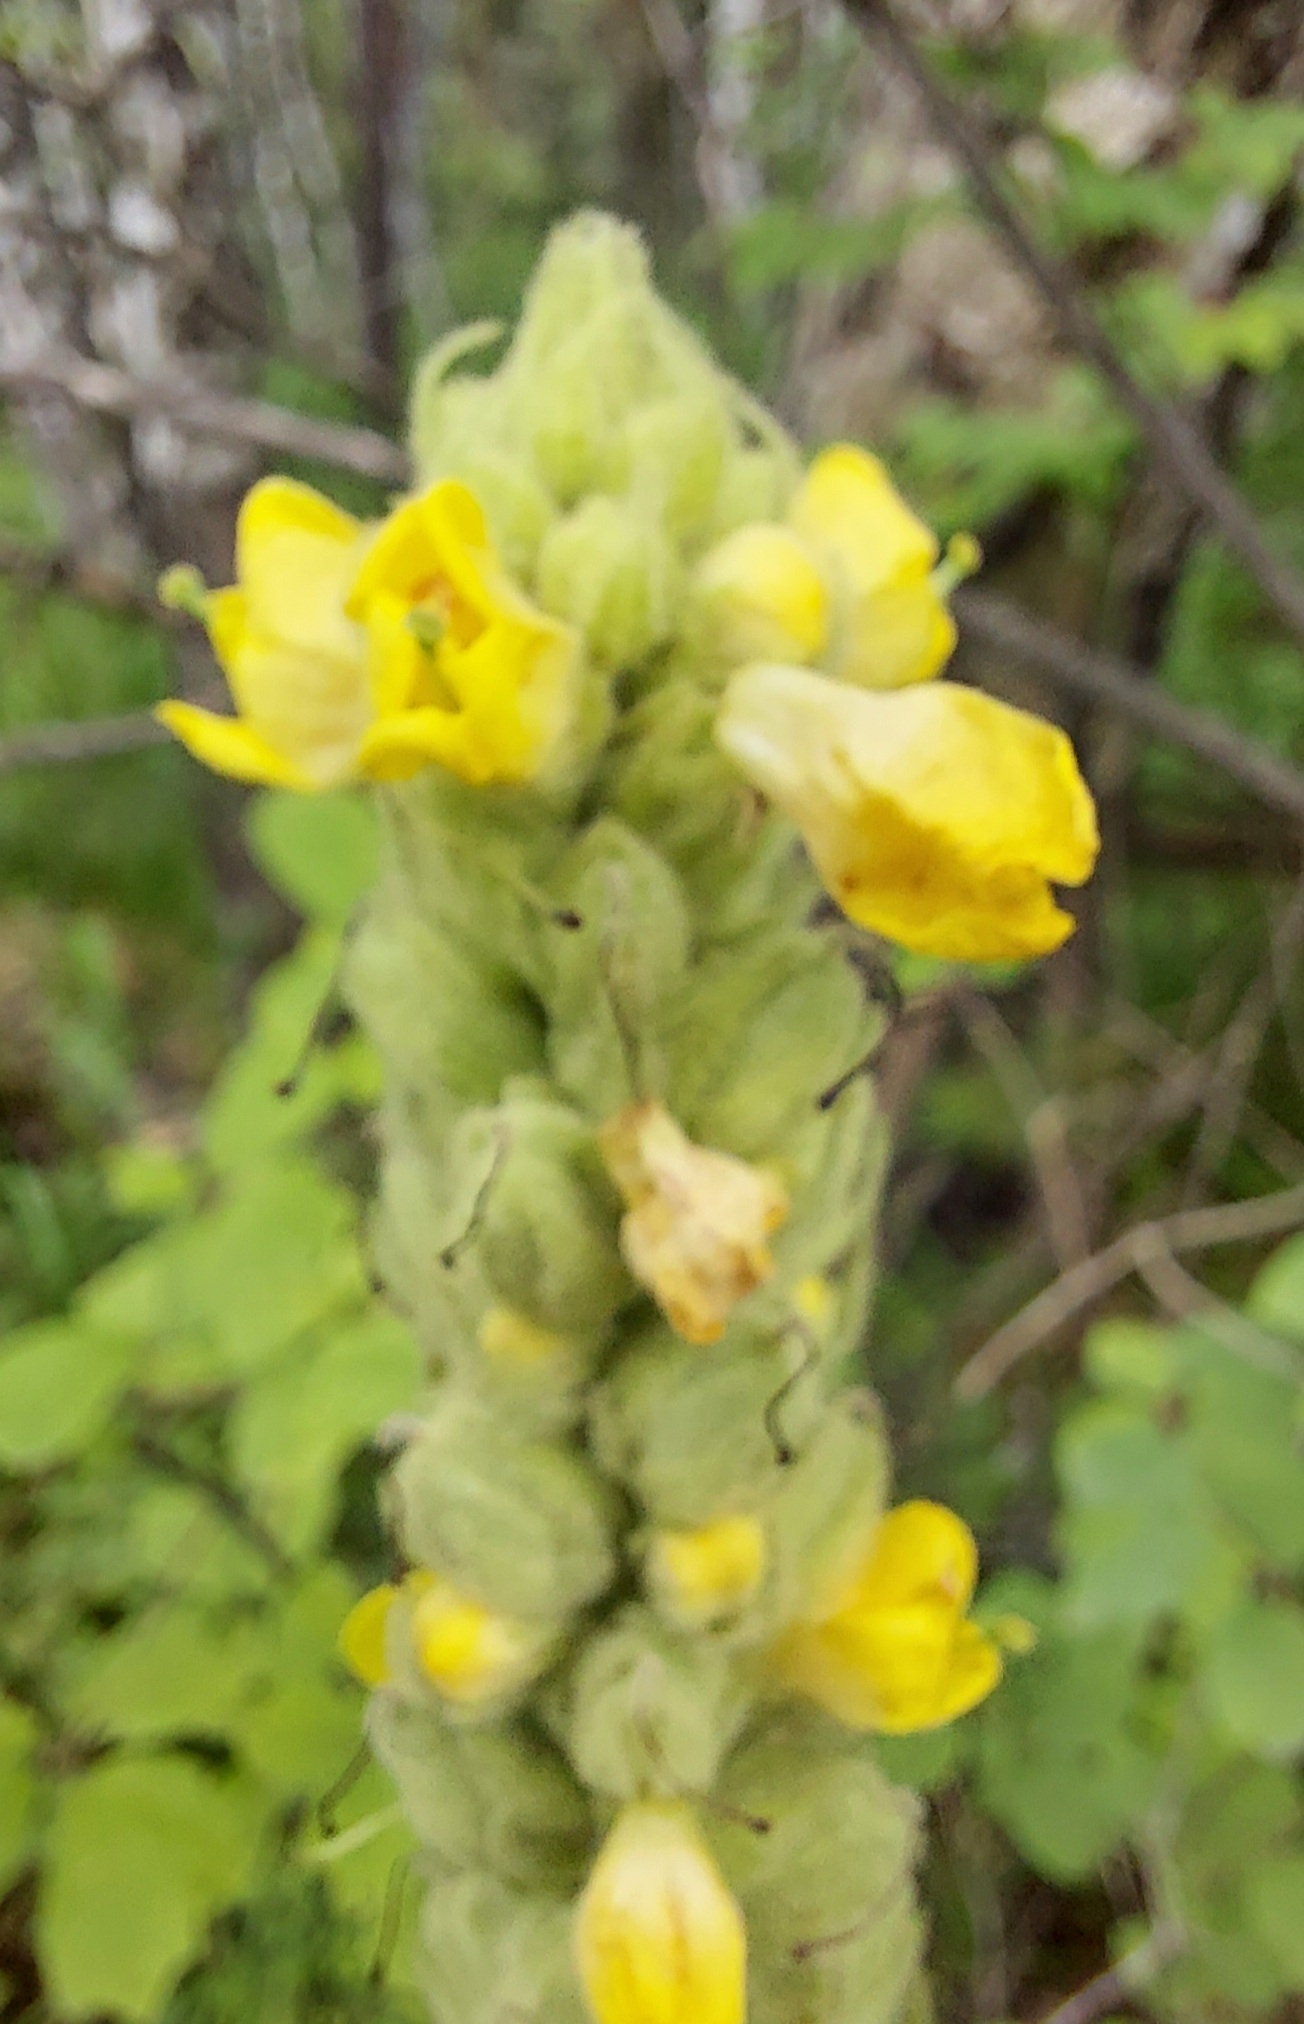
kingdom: Plantae
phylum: Tracheophyta
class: Magnoliopsida
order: Lamiales
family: Scrophulariaceae
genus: Verbascum
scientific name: Verbascum thapsus
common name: Common mullein
